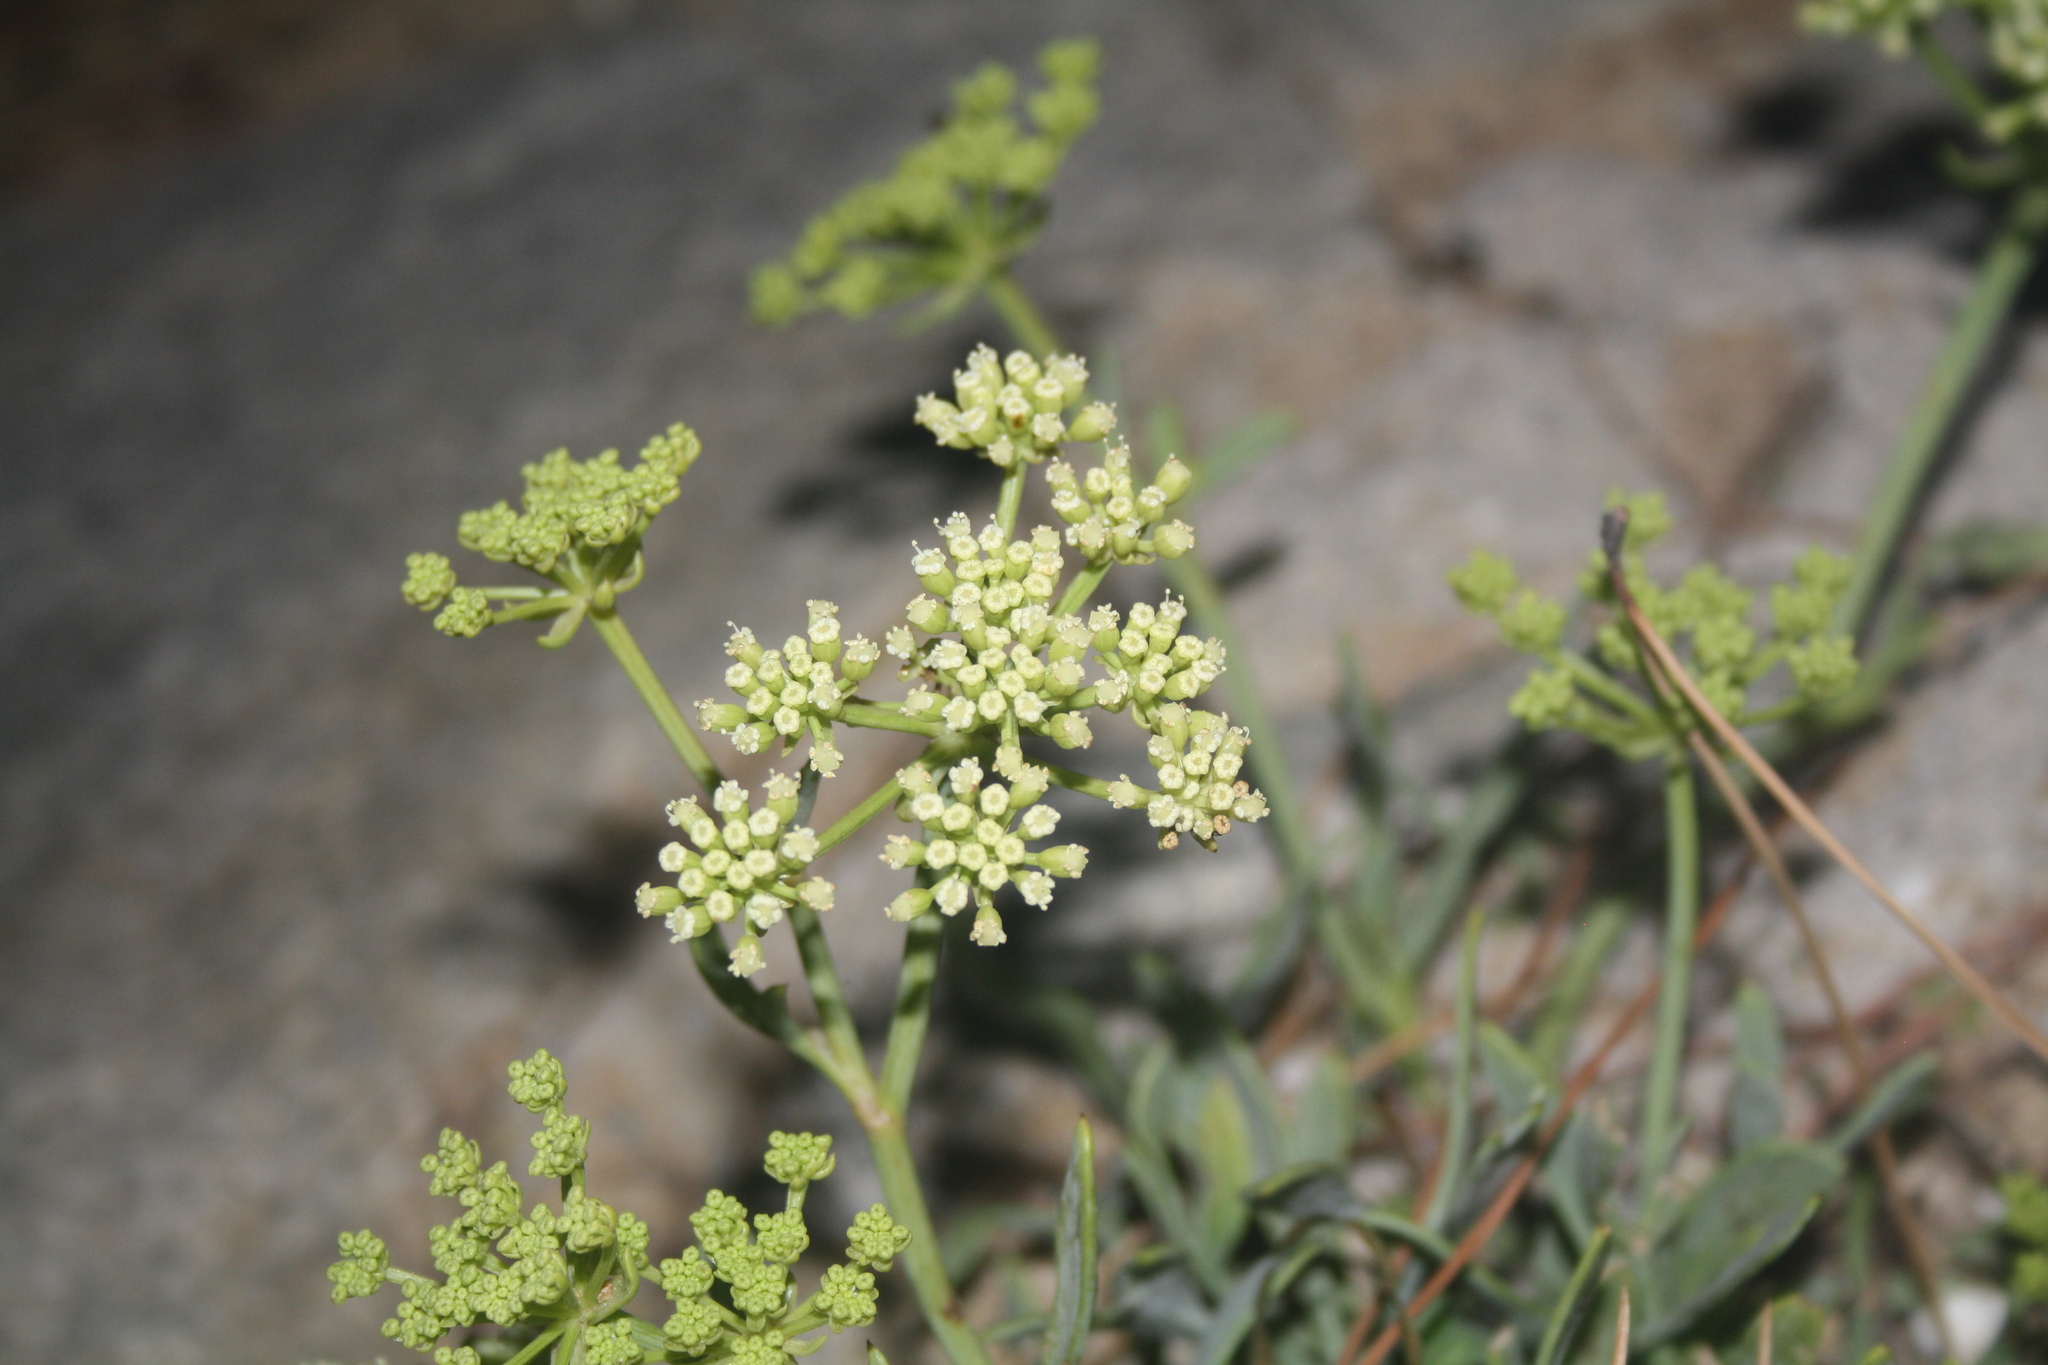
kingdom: Plantae
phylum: Tracheophyta
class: Magnoliopsida
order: Apiales
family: Apiaceae
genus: Crithmum
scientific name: Crithmum maritimum
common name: Rock samphire
